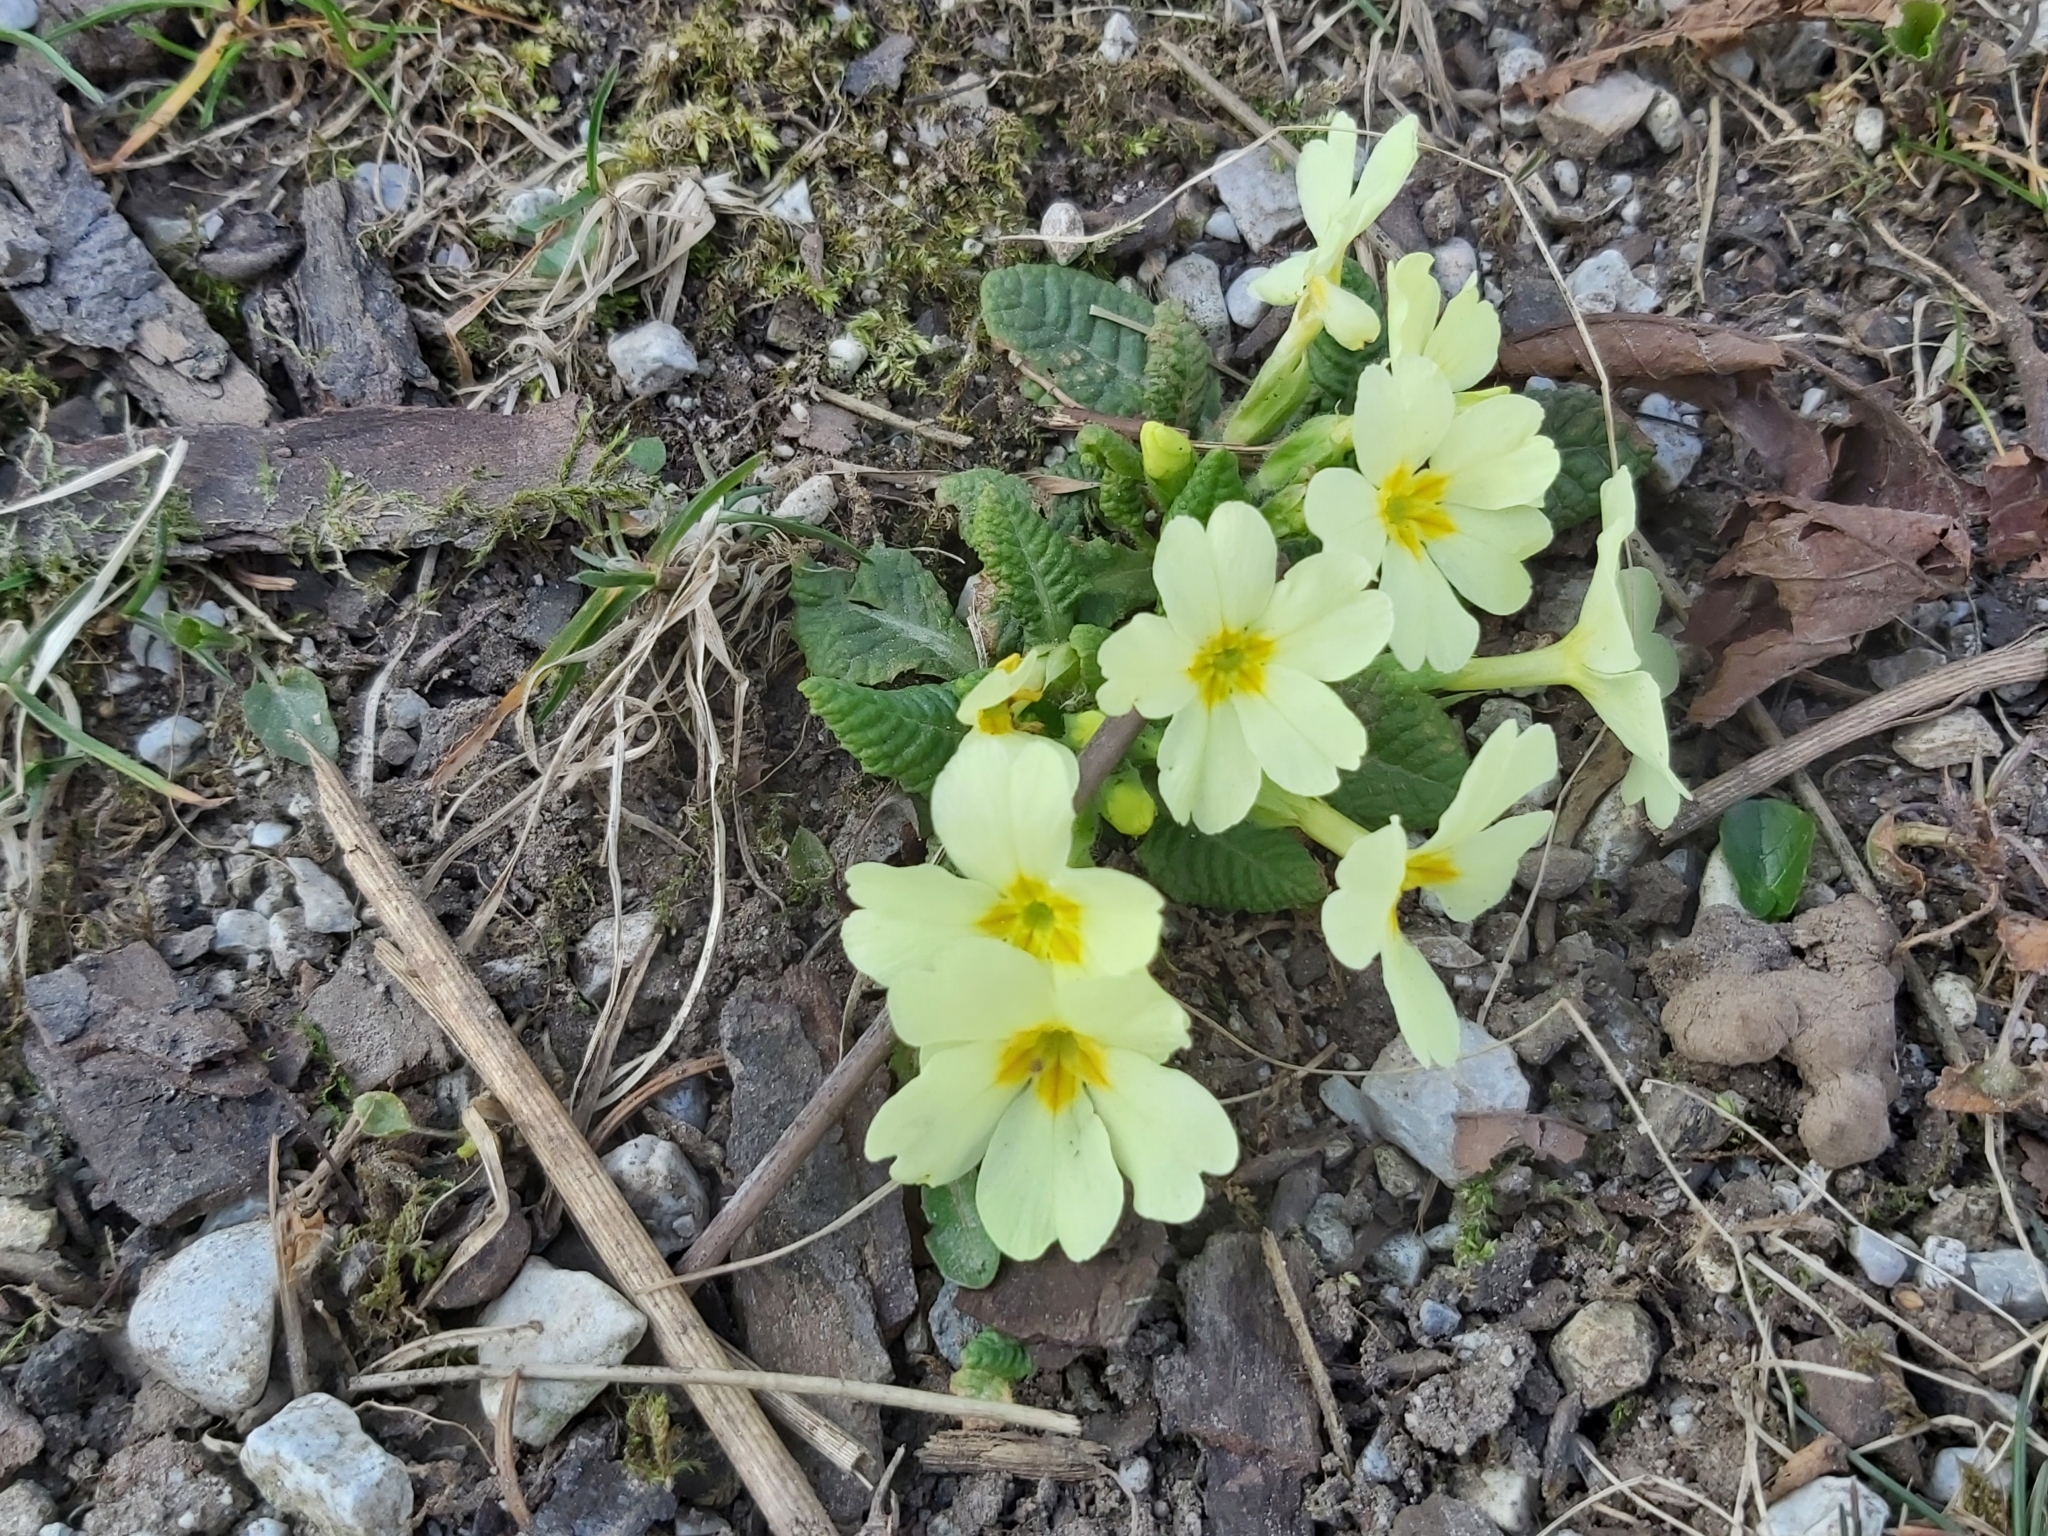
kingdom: Plantae
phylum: Tracheophyta
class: Magnoliopsida
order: Ericales
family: Primulaceae
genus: Primula
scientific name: Primula vulgaris
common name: Primrose
